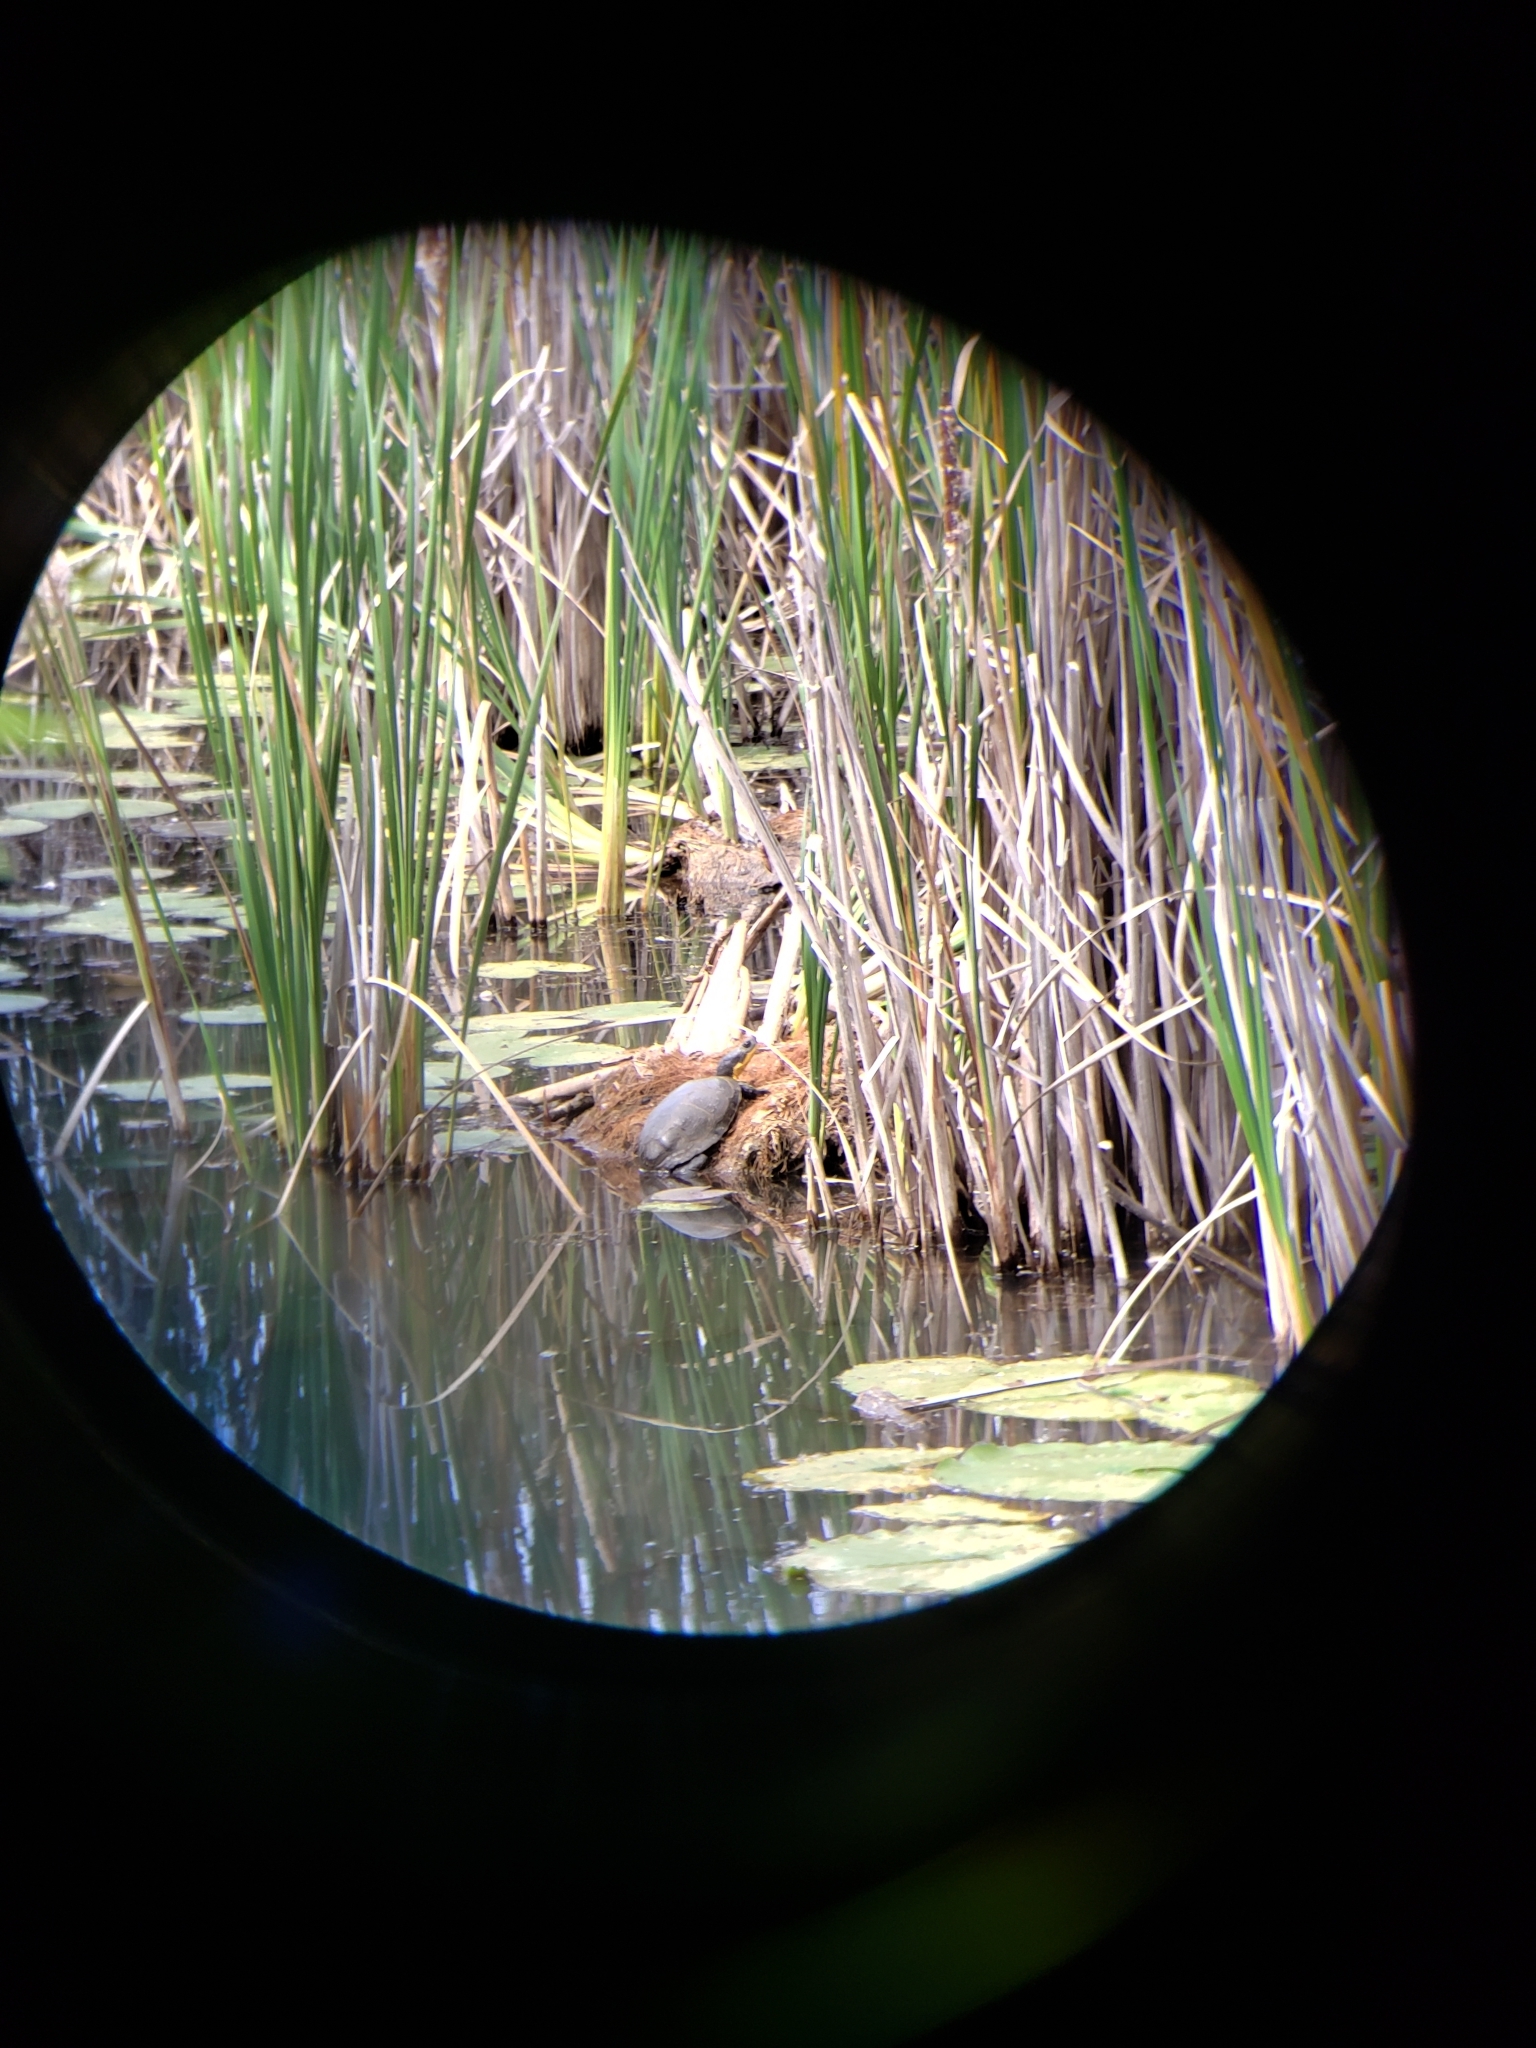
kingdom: Animalia
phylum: Chordata
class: Testudines
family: Emydidae
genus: Emys
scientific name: Emys blandingii
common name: Blanding's turtle
